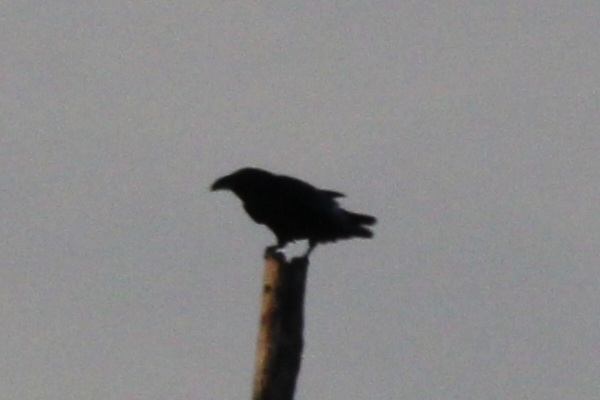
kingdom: Animalia
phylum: Chordata
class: Aves
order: Passeriformes
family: Corvidae
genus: Corvus
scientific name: Corvus corax
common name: Common raven
